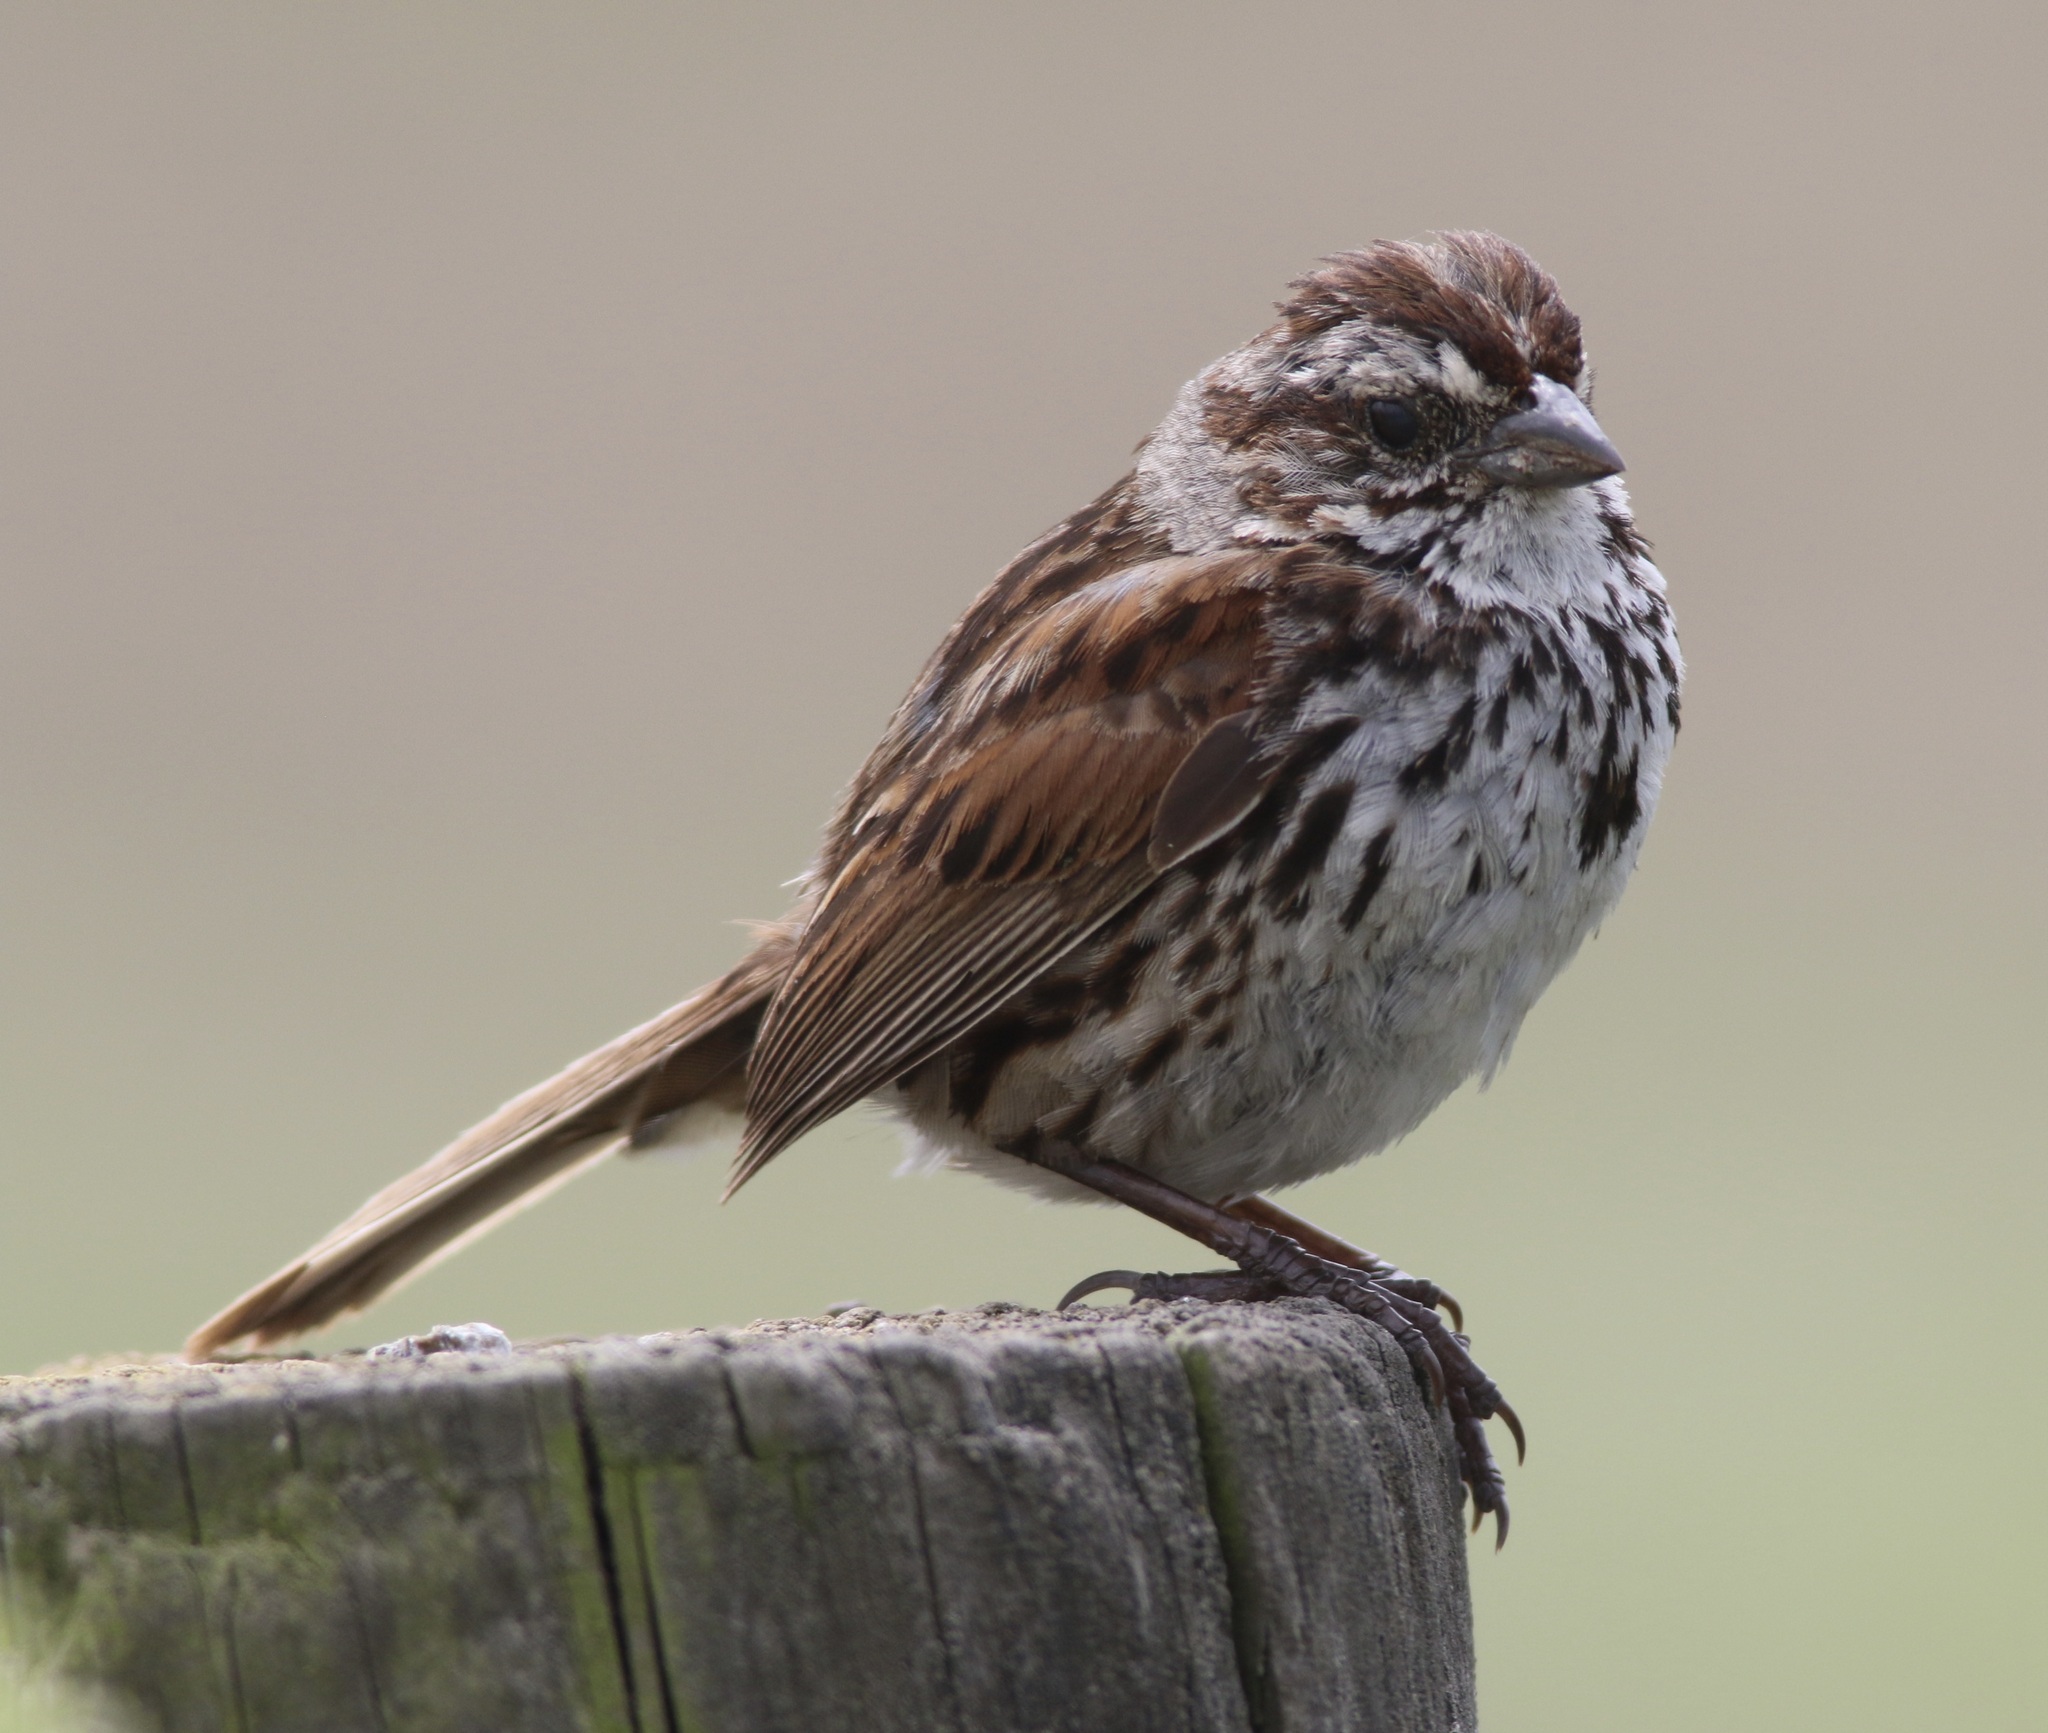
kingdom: Animalia
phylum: Chordata
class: Aves
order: Passeriformes
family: Passerellidae
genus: Melospiza
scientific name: Melospiza melodia
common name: Song sparrow
